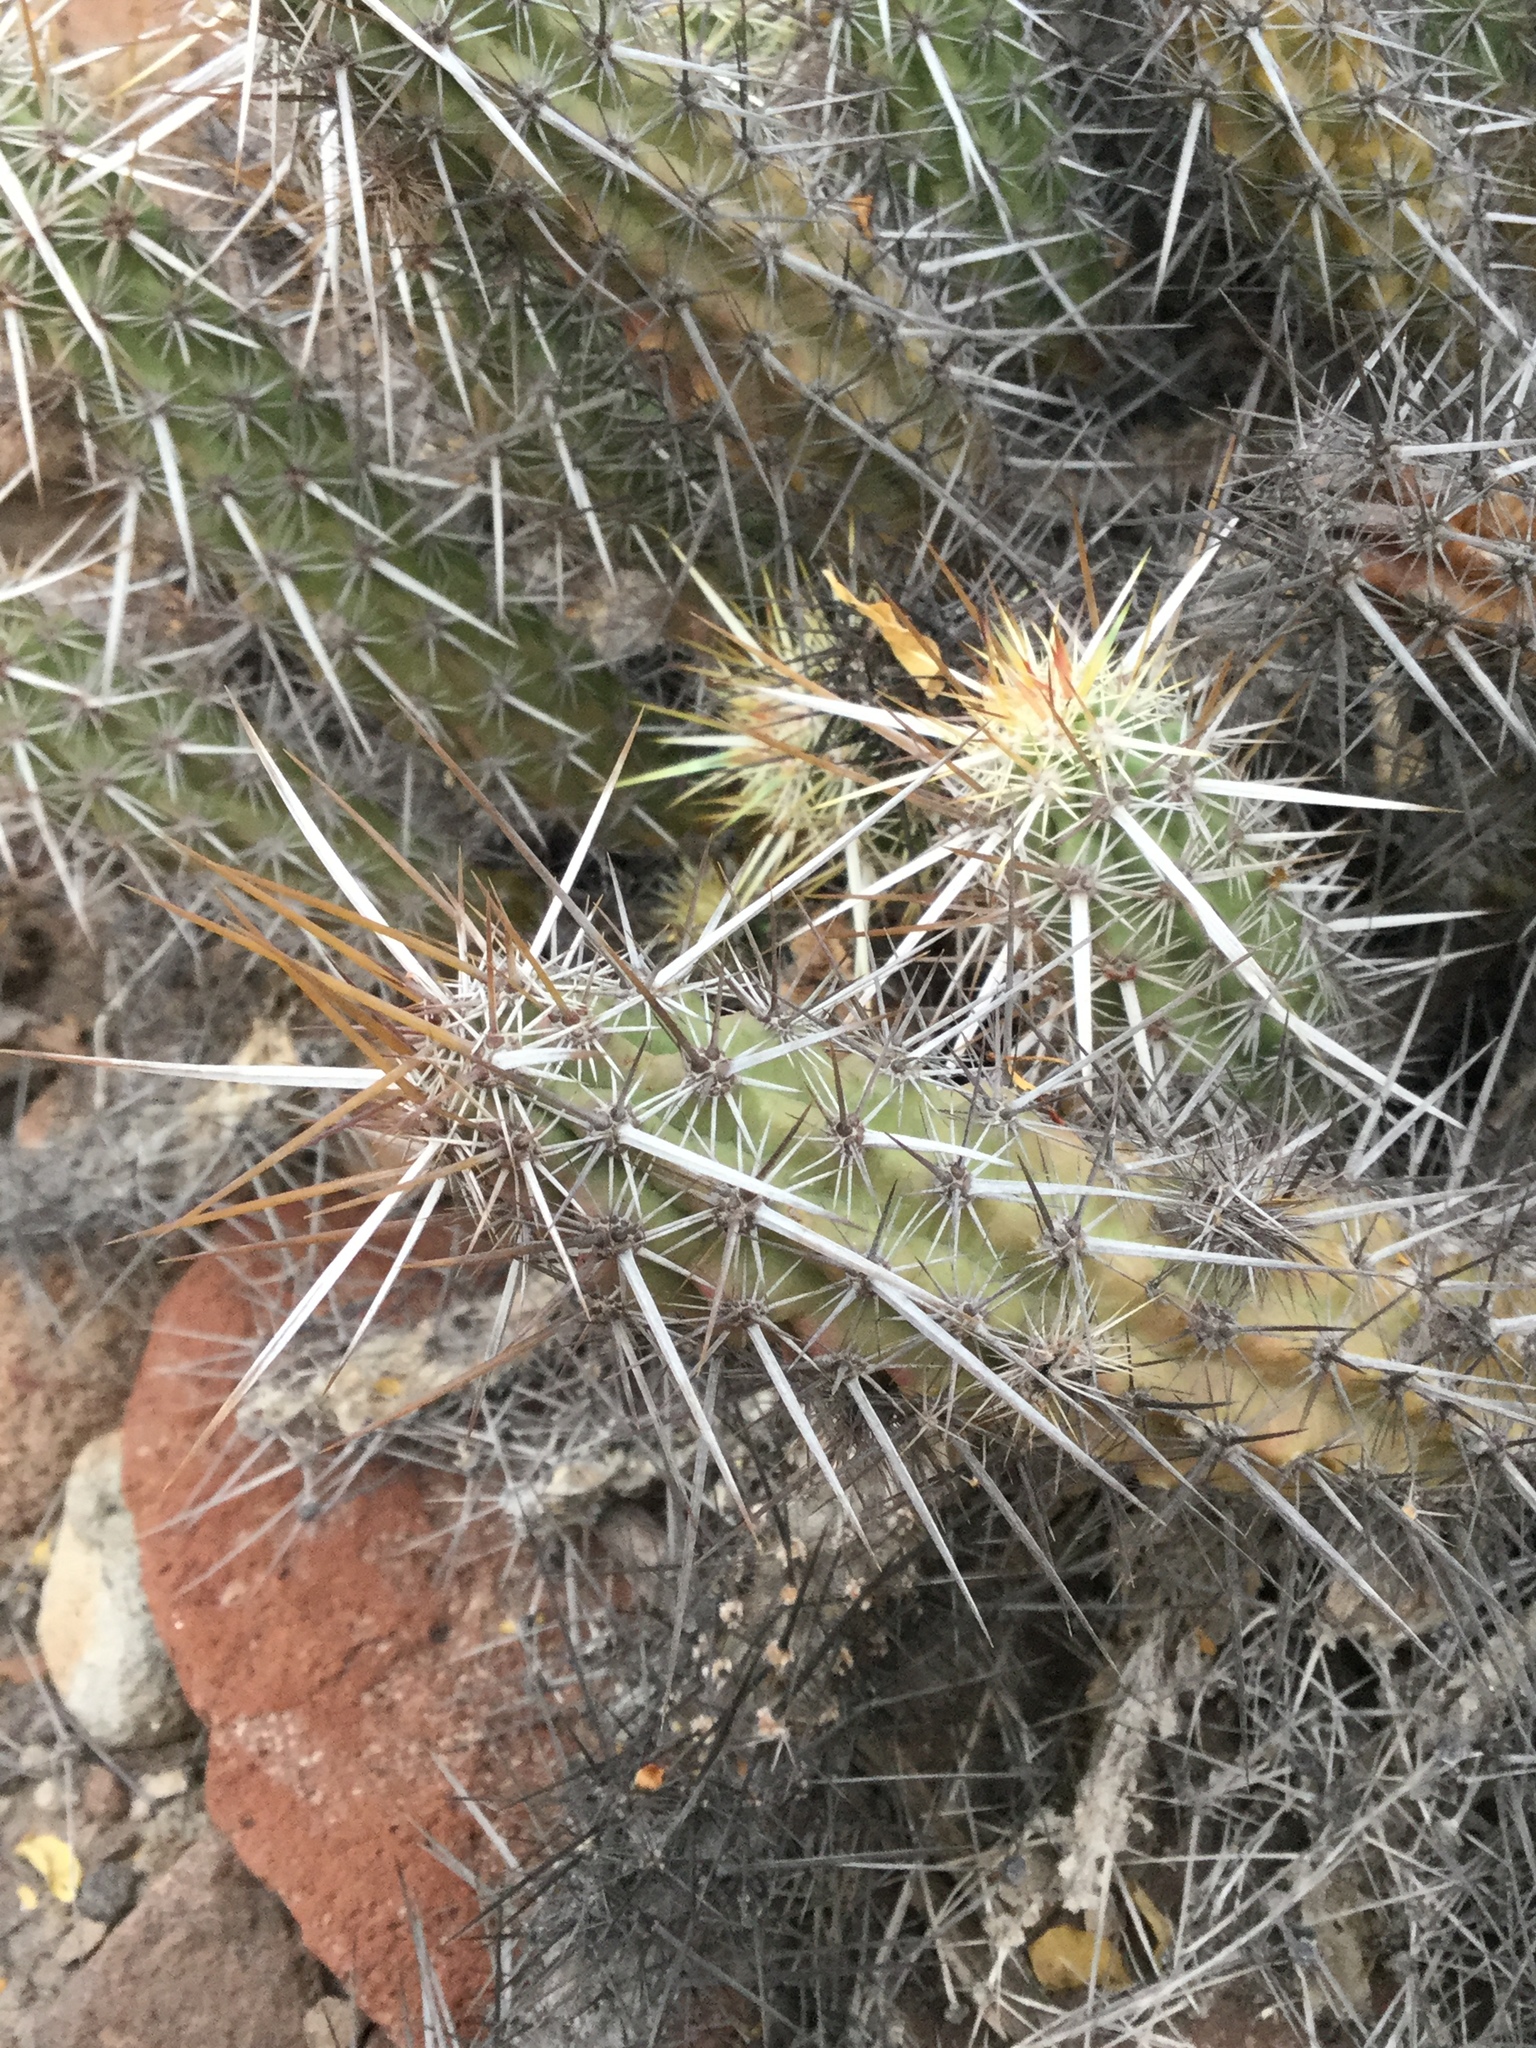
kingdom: Plantae
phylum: Tracheophyta
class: Magnoliopsida
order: Caryophyllales
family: Cactaceae
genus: Echinocereus
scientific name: Echinocereus brandegeei
